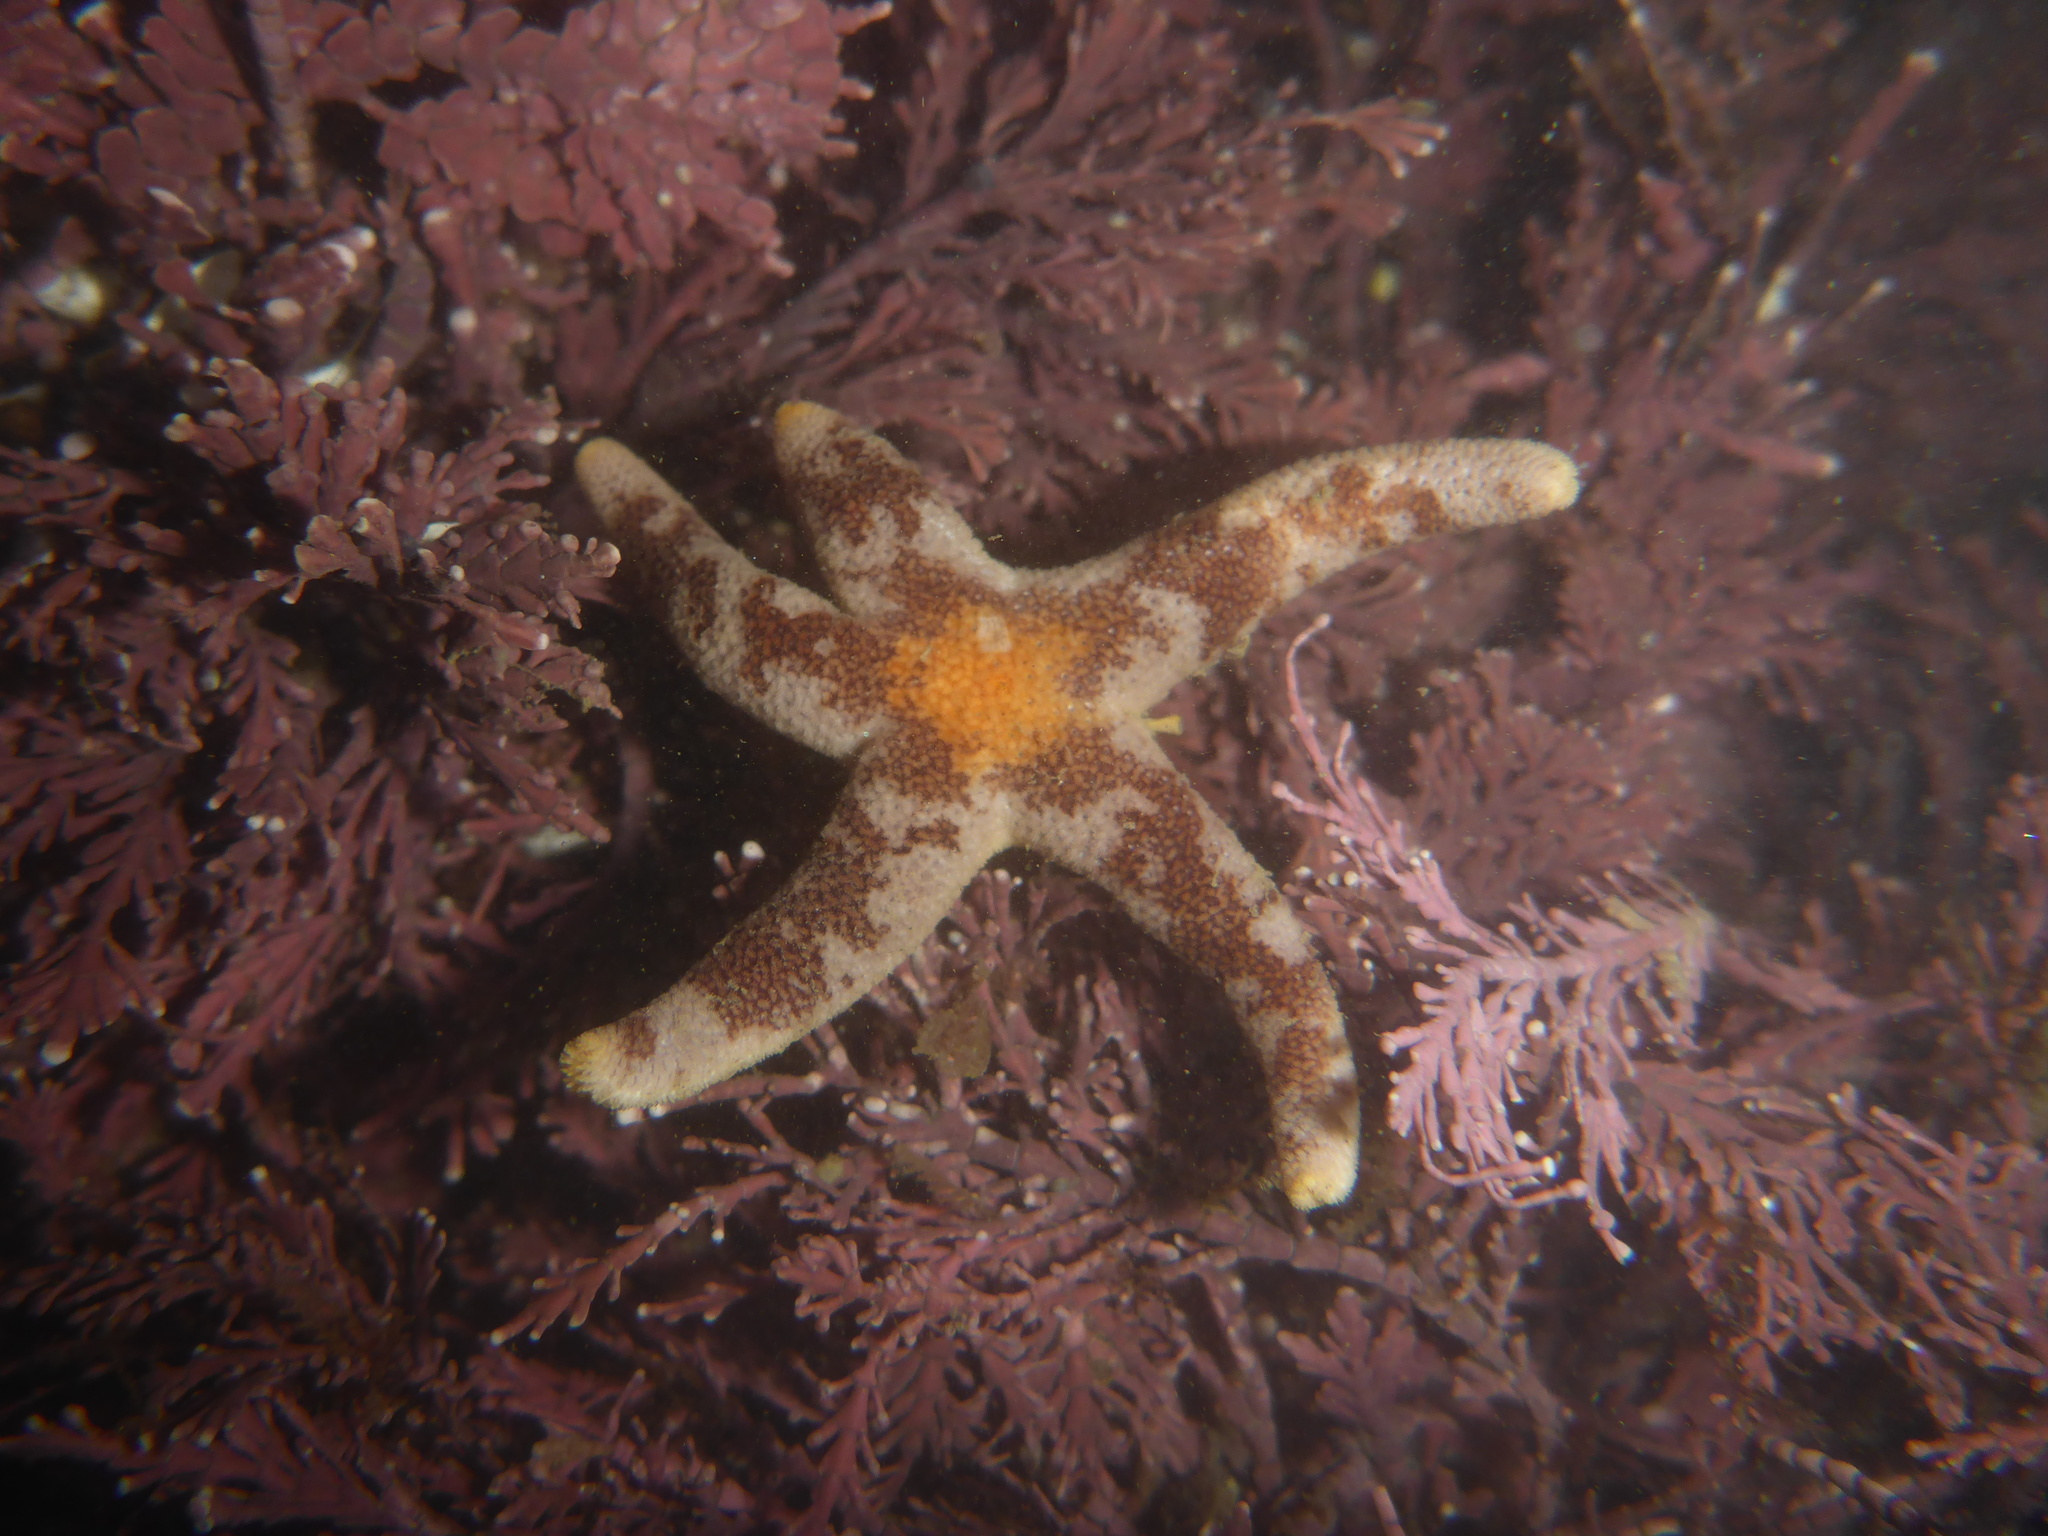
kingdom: Animalia
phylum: Echinodermata
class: Asteroidea
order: Spinulosida
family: Echinasteridae
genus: Henricia
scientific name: Henricia pumila
